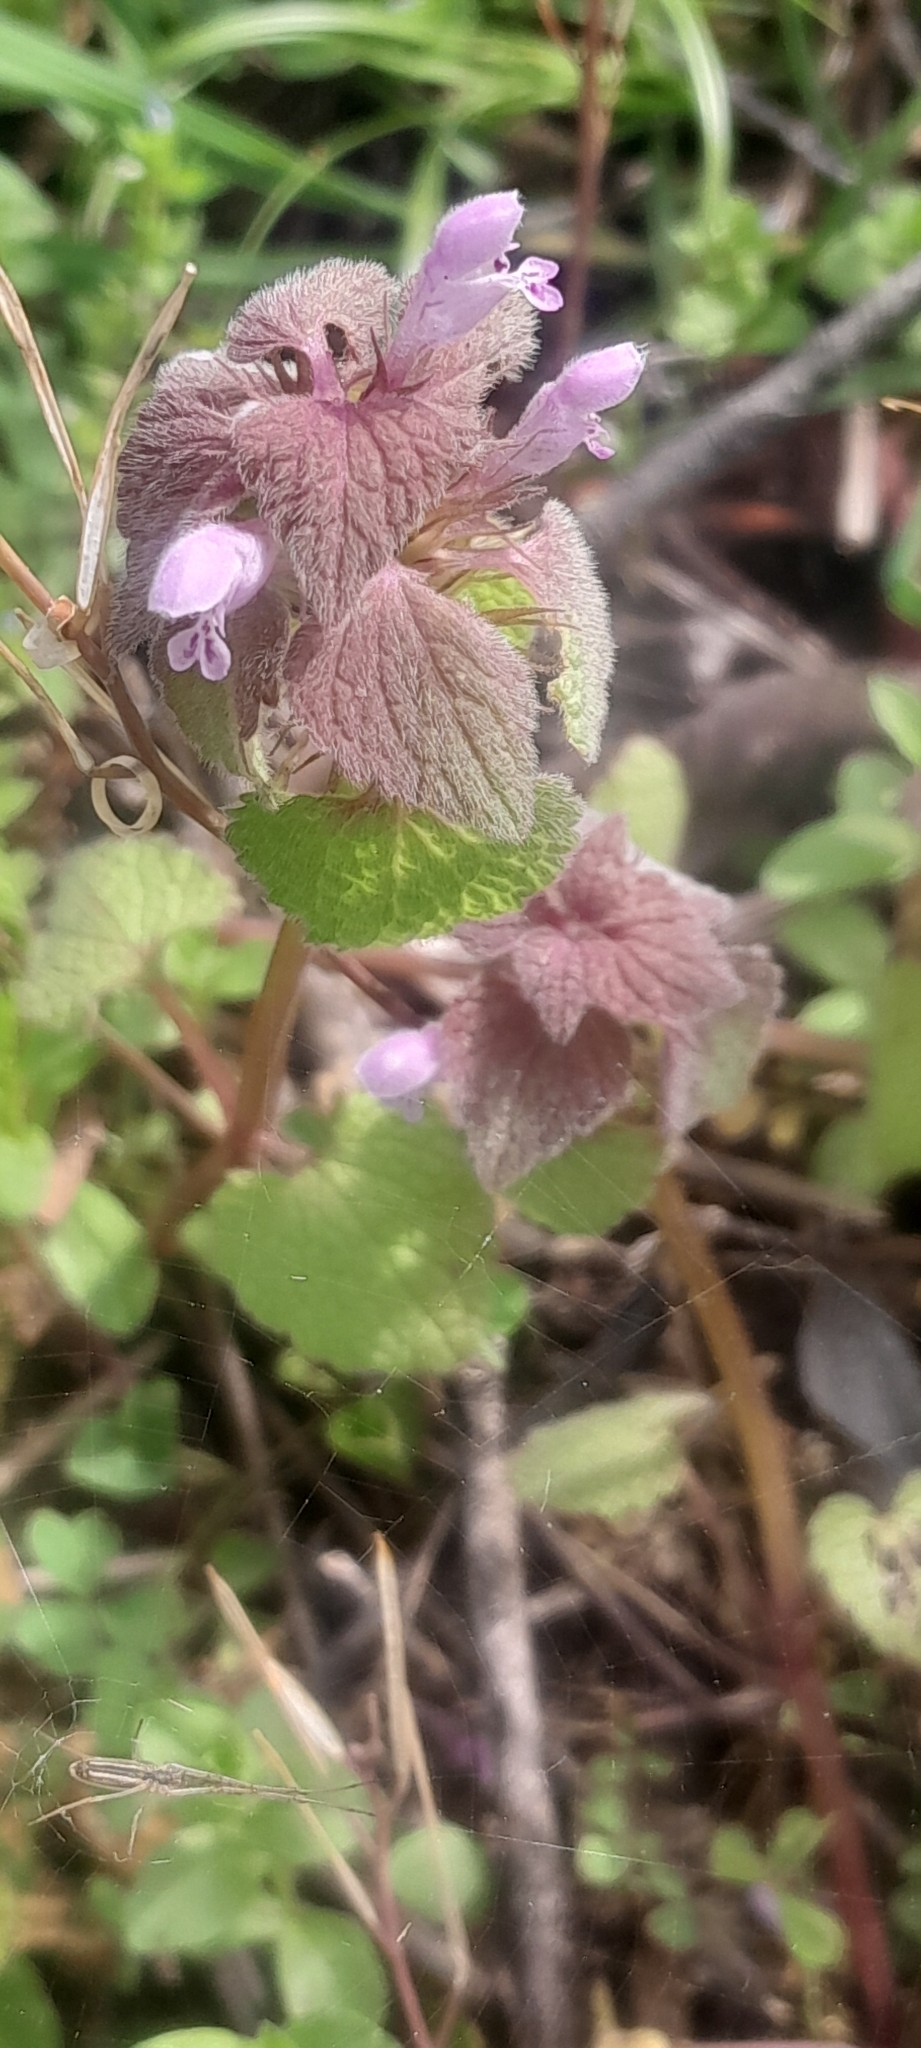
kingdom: Plantae
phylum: Tracheophyta
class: Magnoliopsida
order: Lamiales
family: Lamiaceae
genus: Lamium
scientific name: Lamium purpureum
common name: Red dead-nettle
